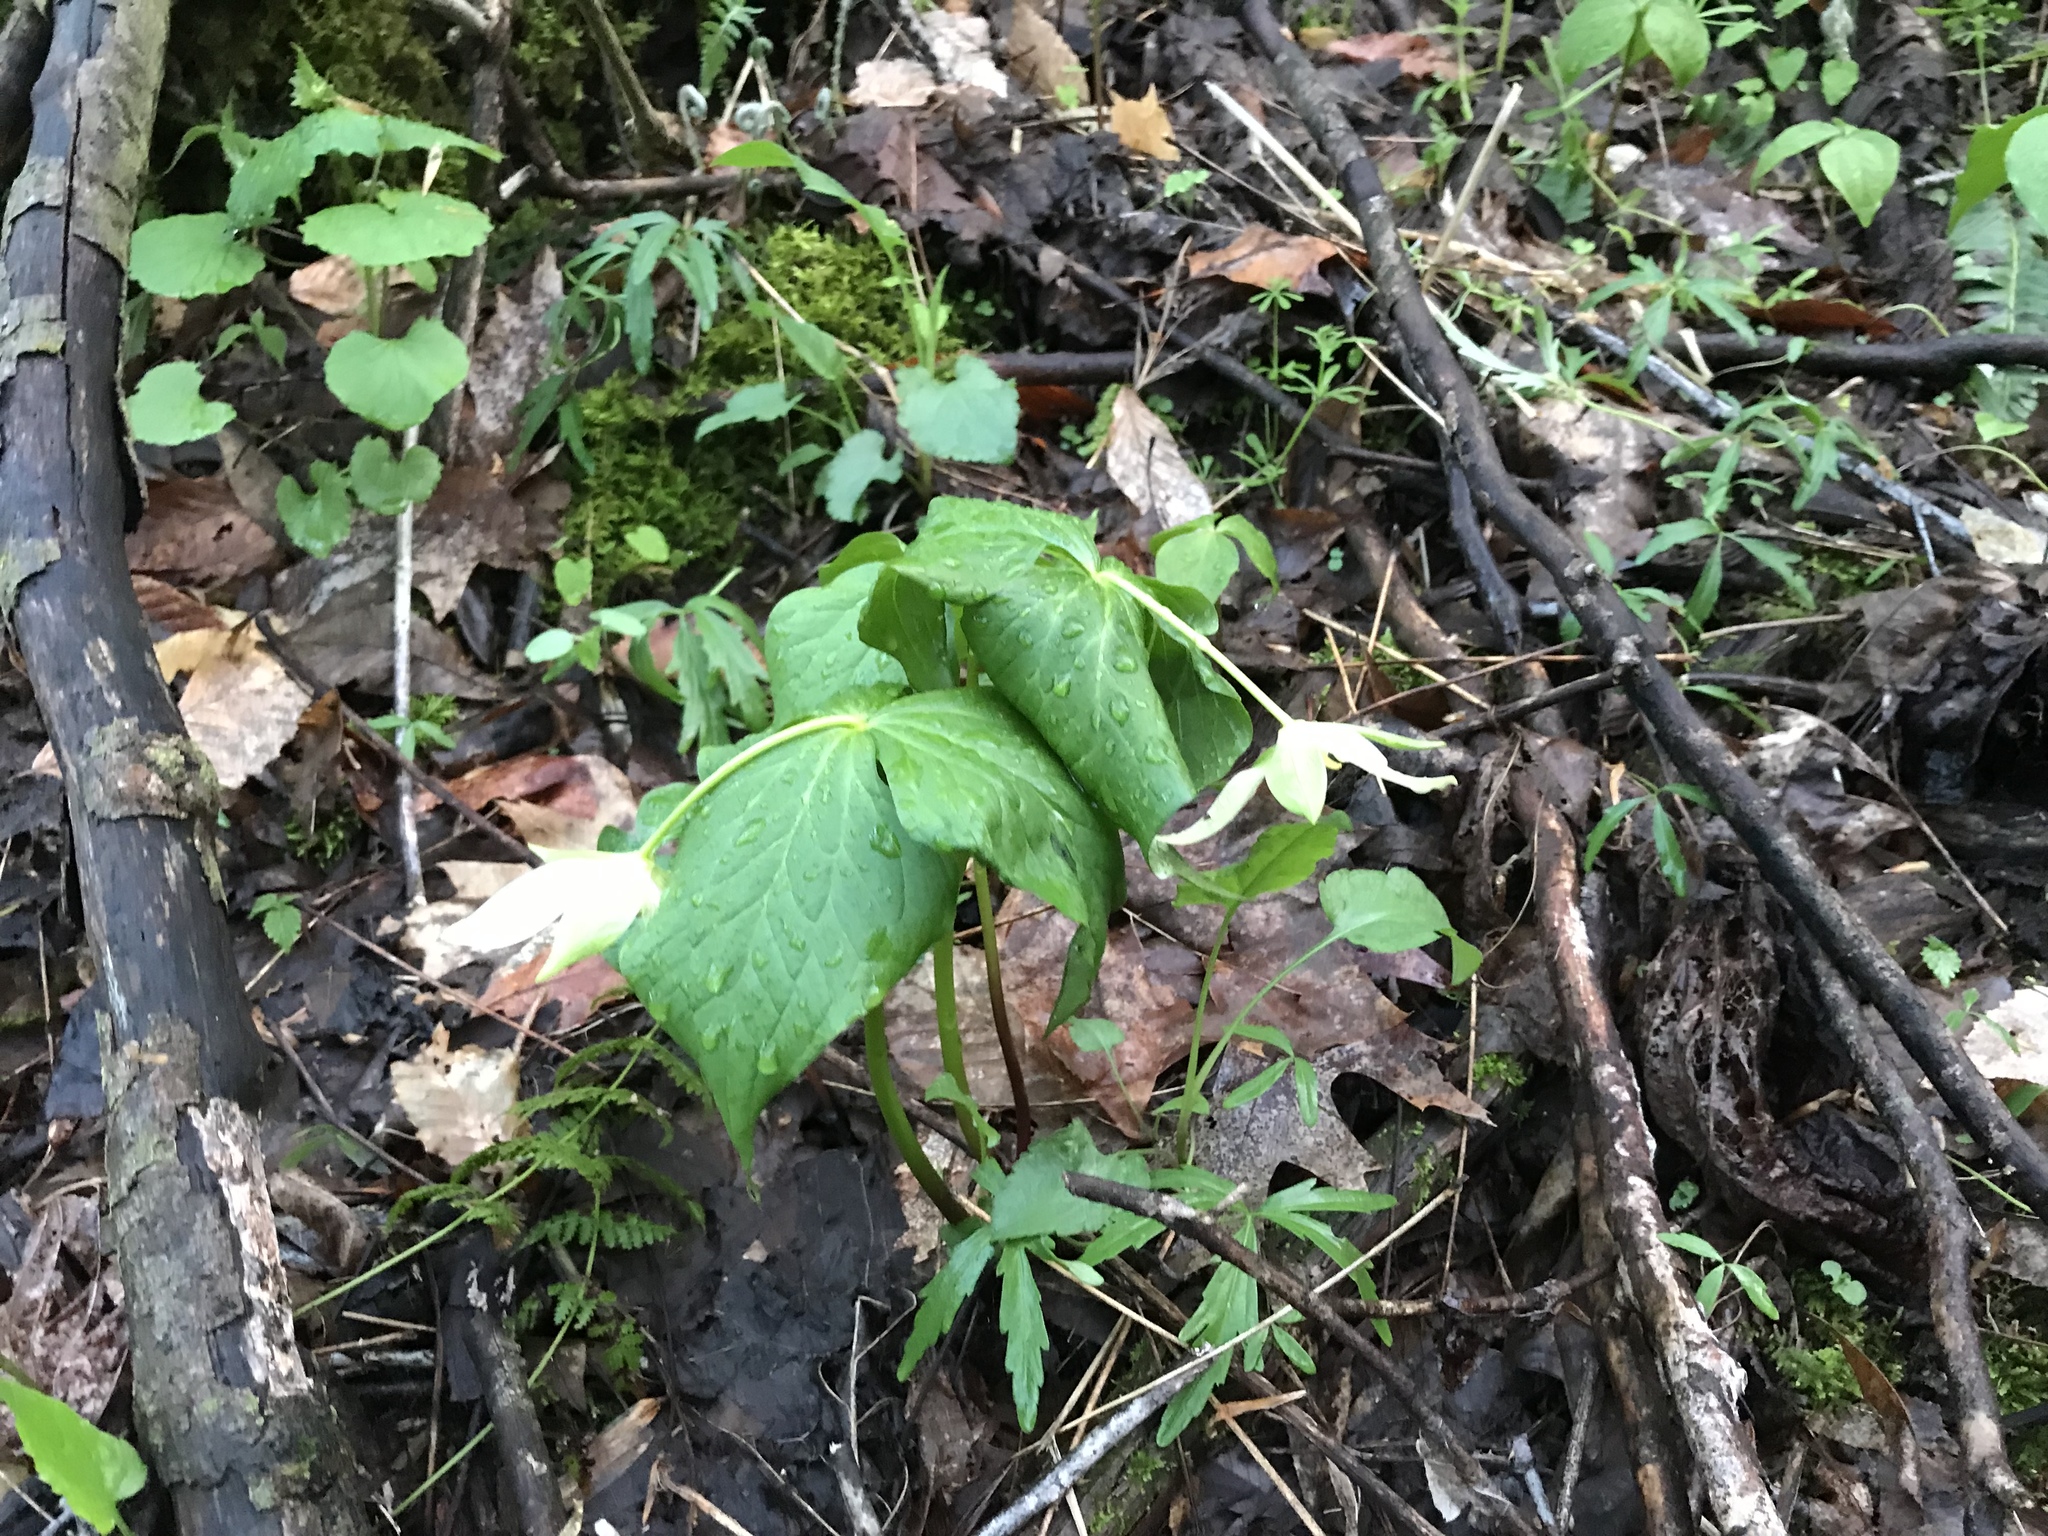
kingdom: Plantae
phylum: Tracheophyta
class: Liliopsida
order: Liliales
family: Melanthiaceae
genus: Trillium
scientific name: Trillium erectum
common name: Purple trillium
